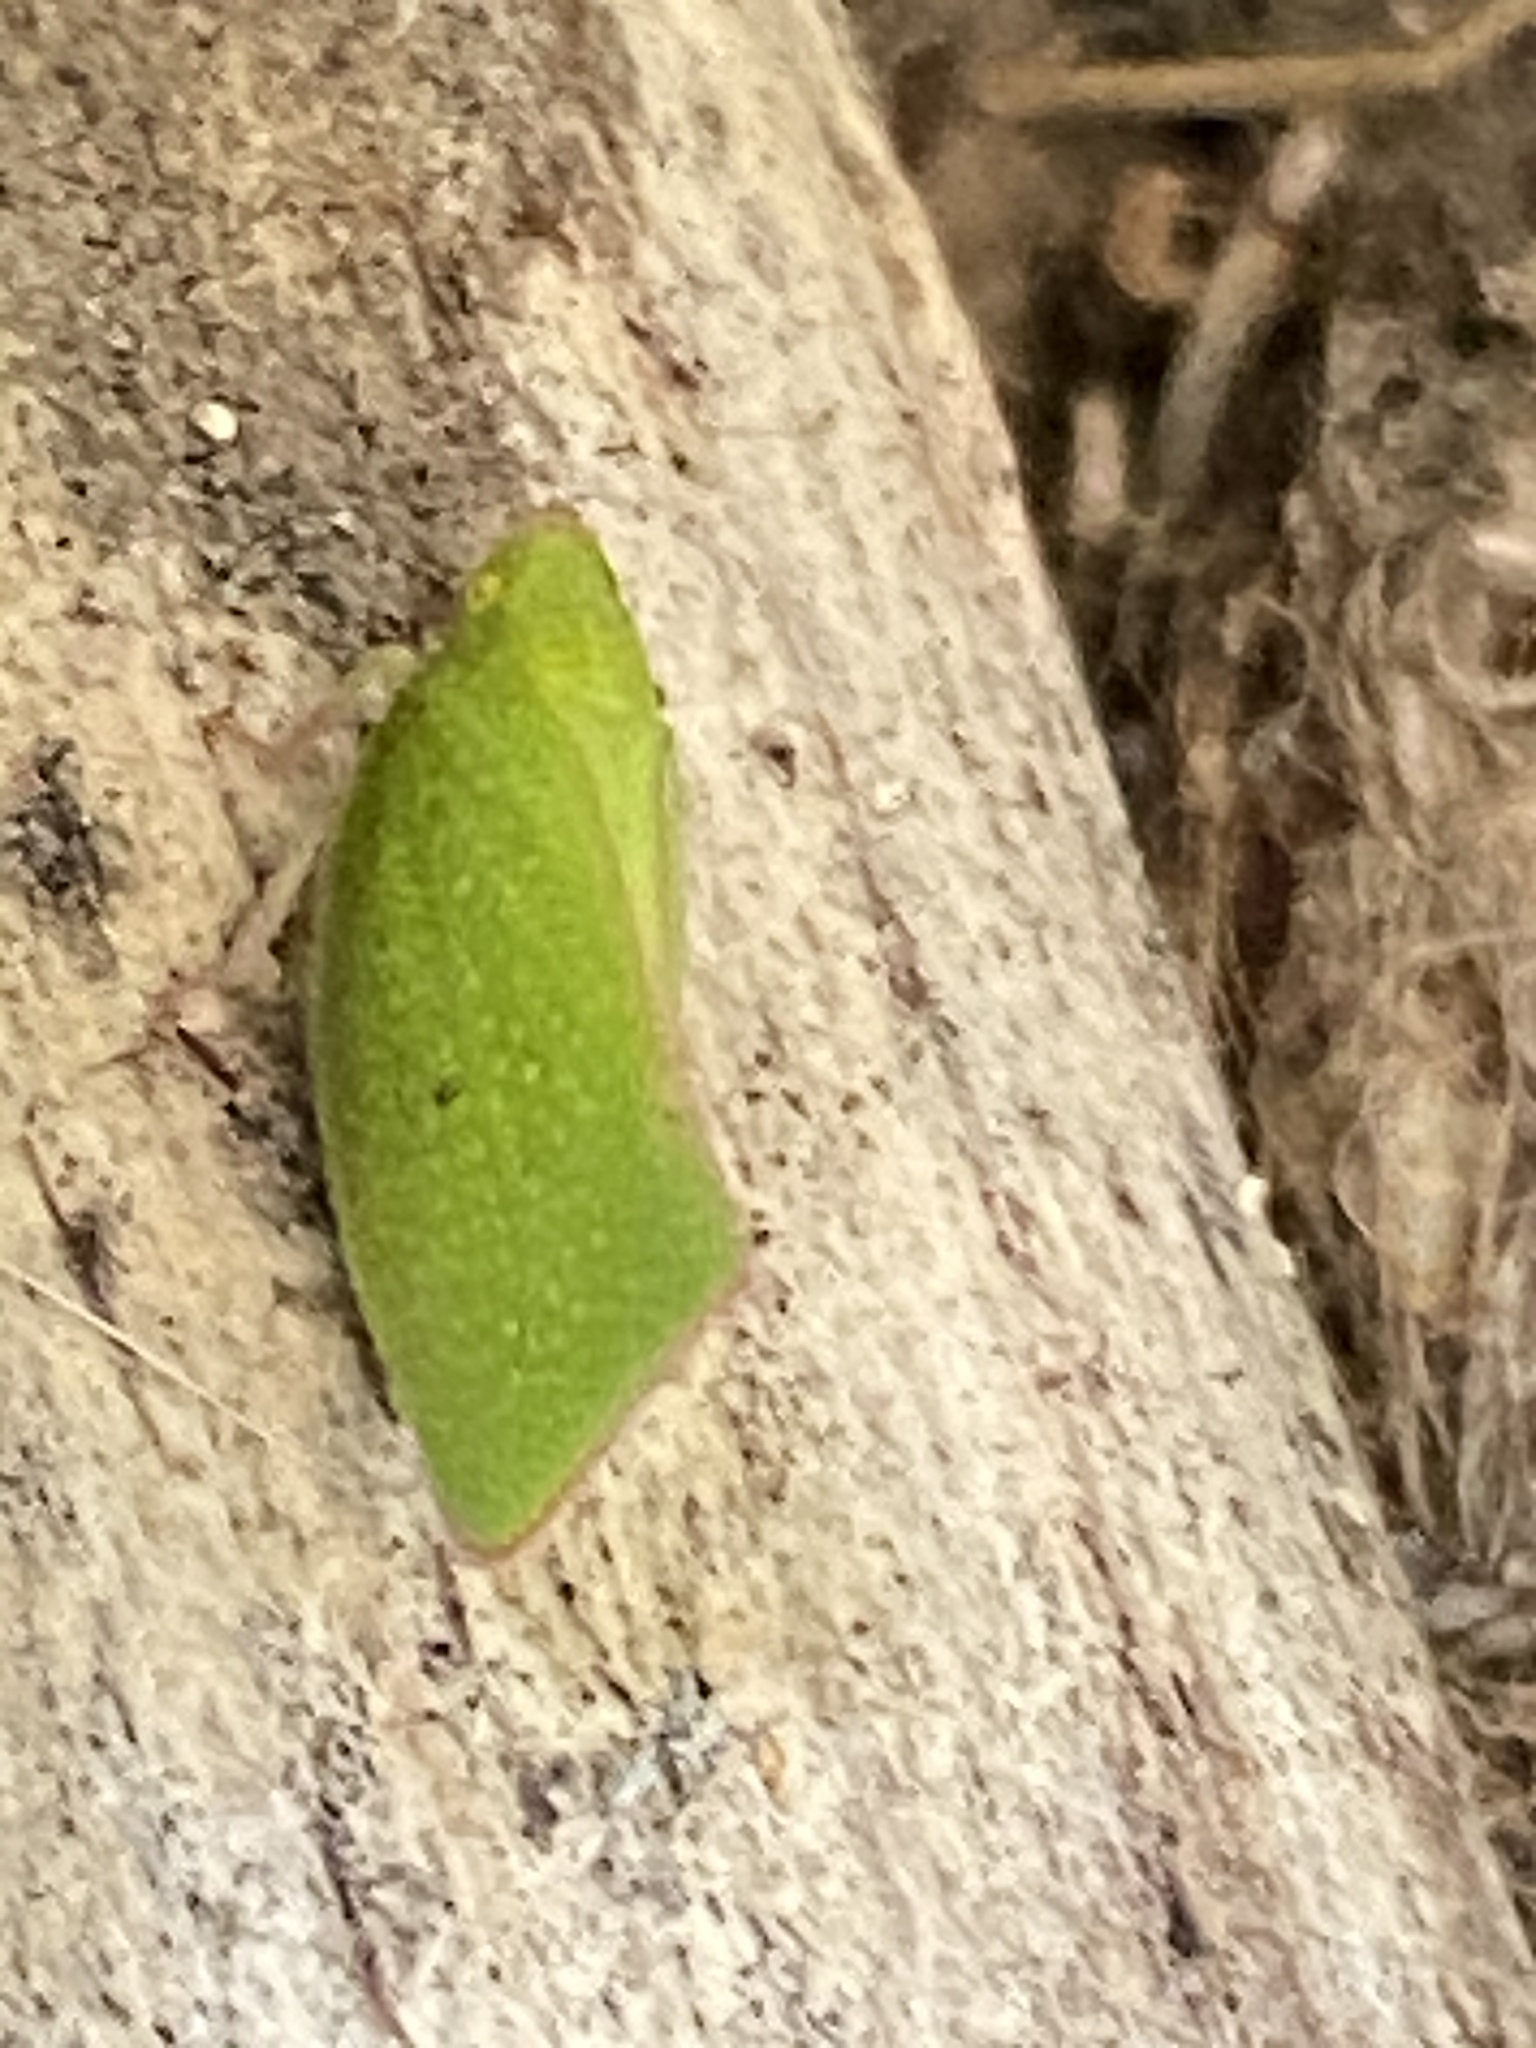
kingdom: Animalia
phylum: Arthropoda
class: Insecta
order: Hemiptera
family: Flatidae
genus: Siphanta
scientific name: Siphanta acuta
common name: Torpedo bug
